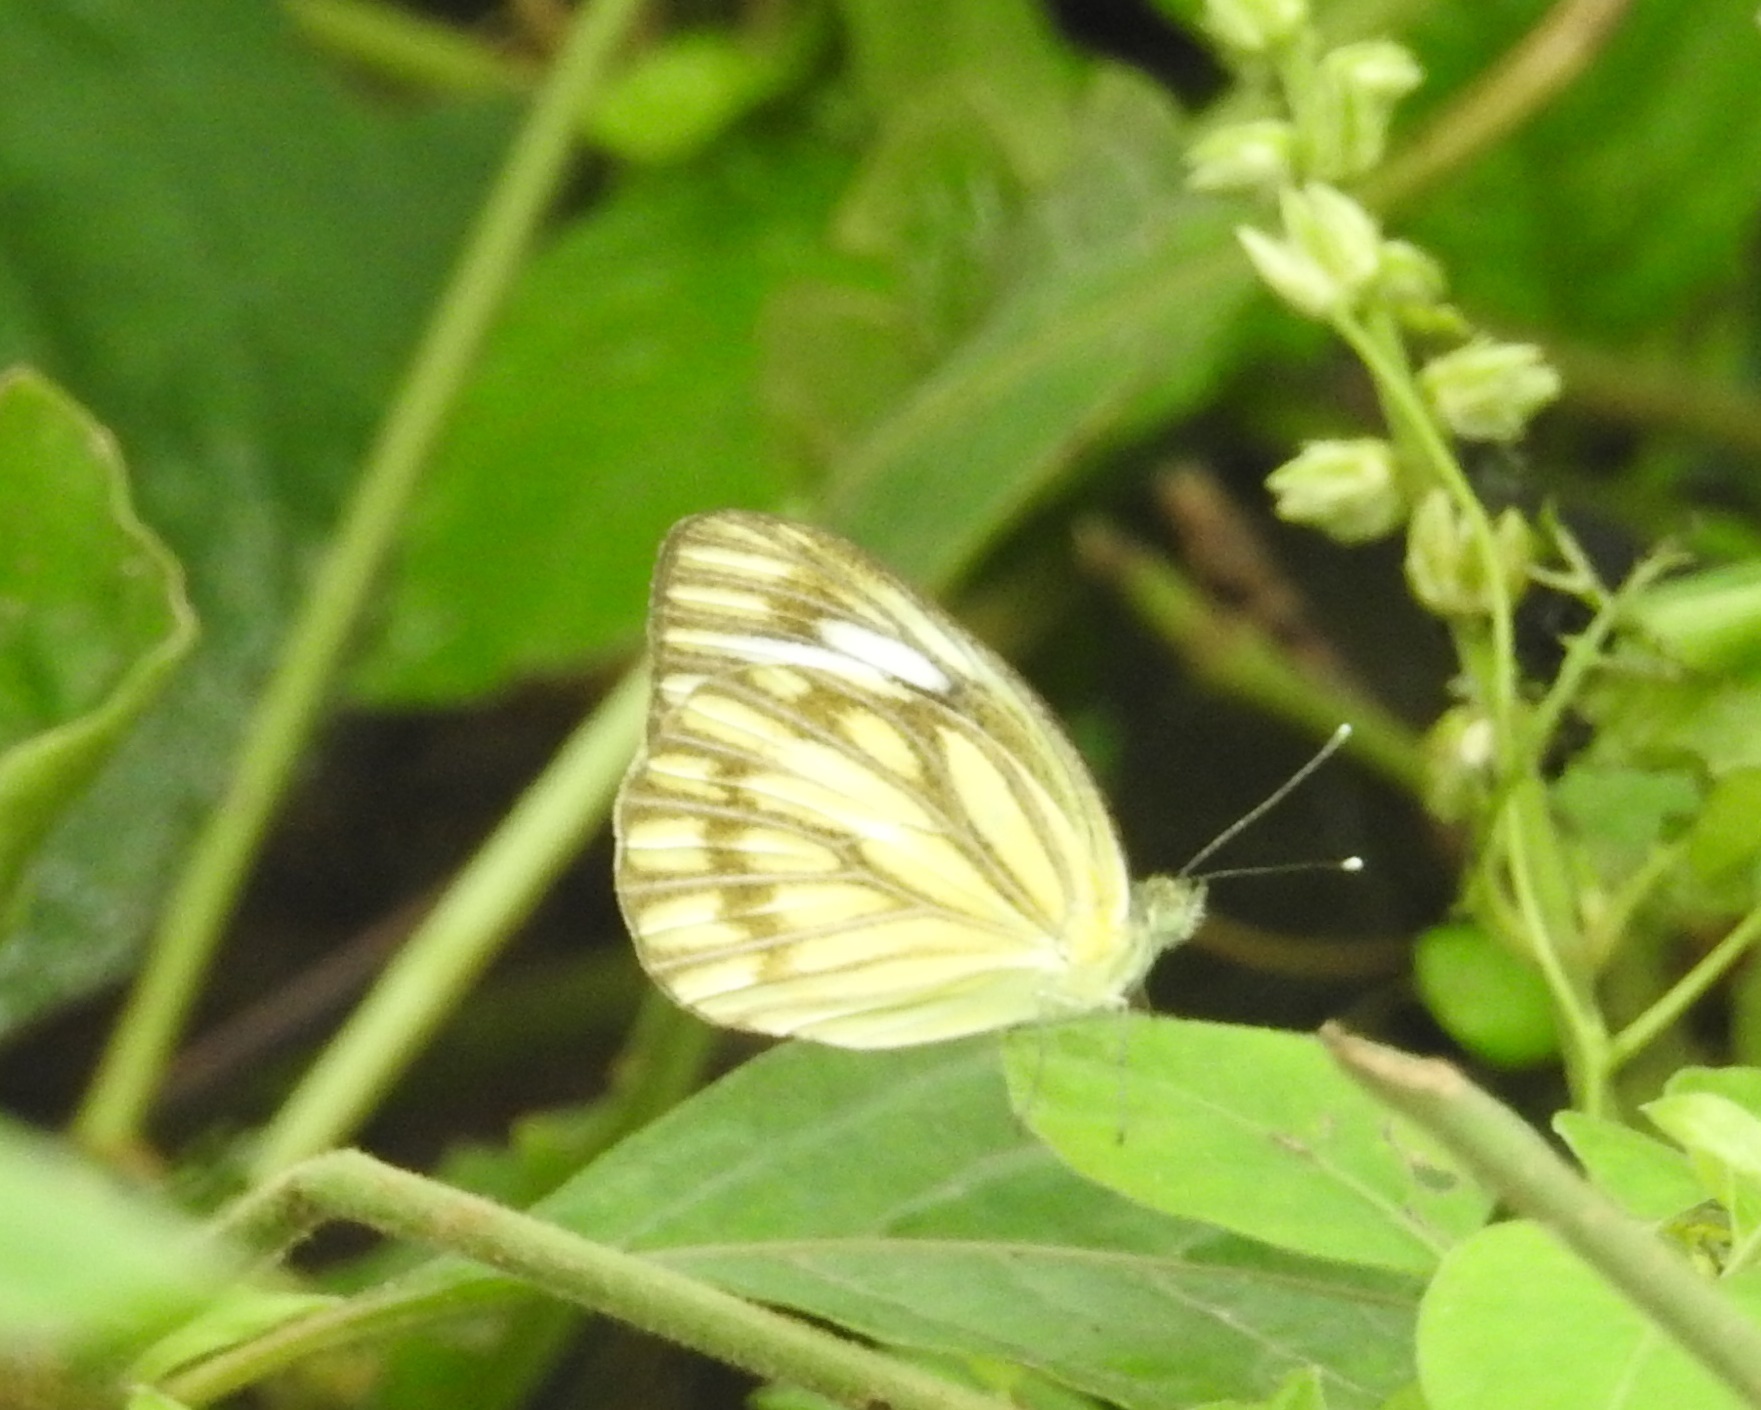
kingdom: Animalia
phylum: Arthropoda
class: Insecta
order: Lepidoptera
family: Pieridae
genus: Cepora
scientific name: Cepora nerissa
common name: Common gull
